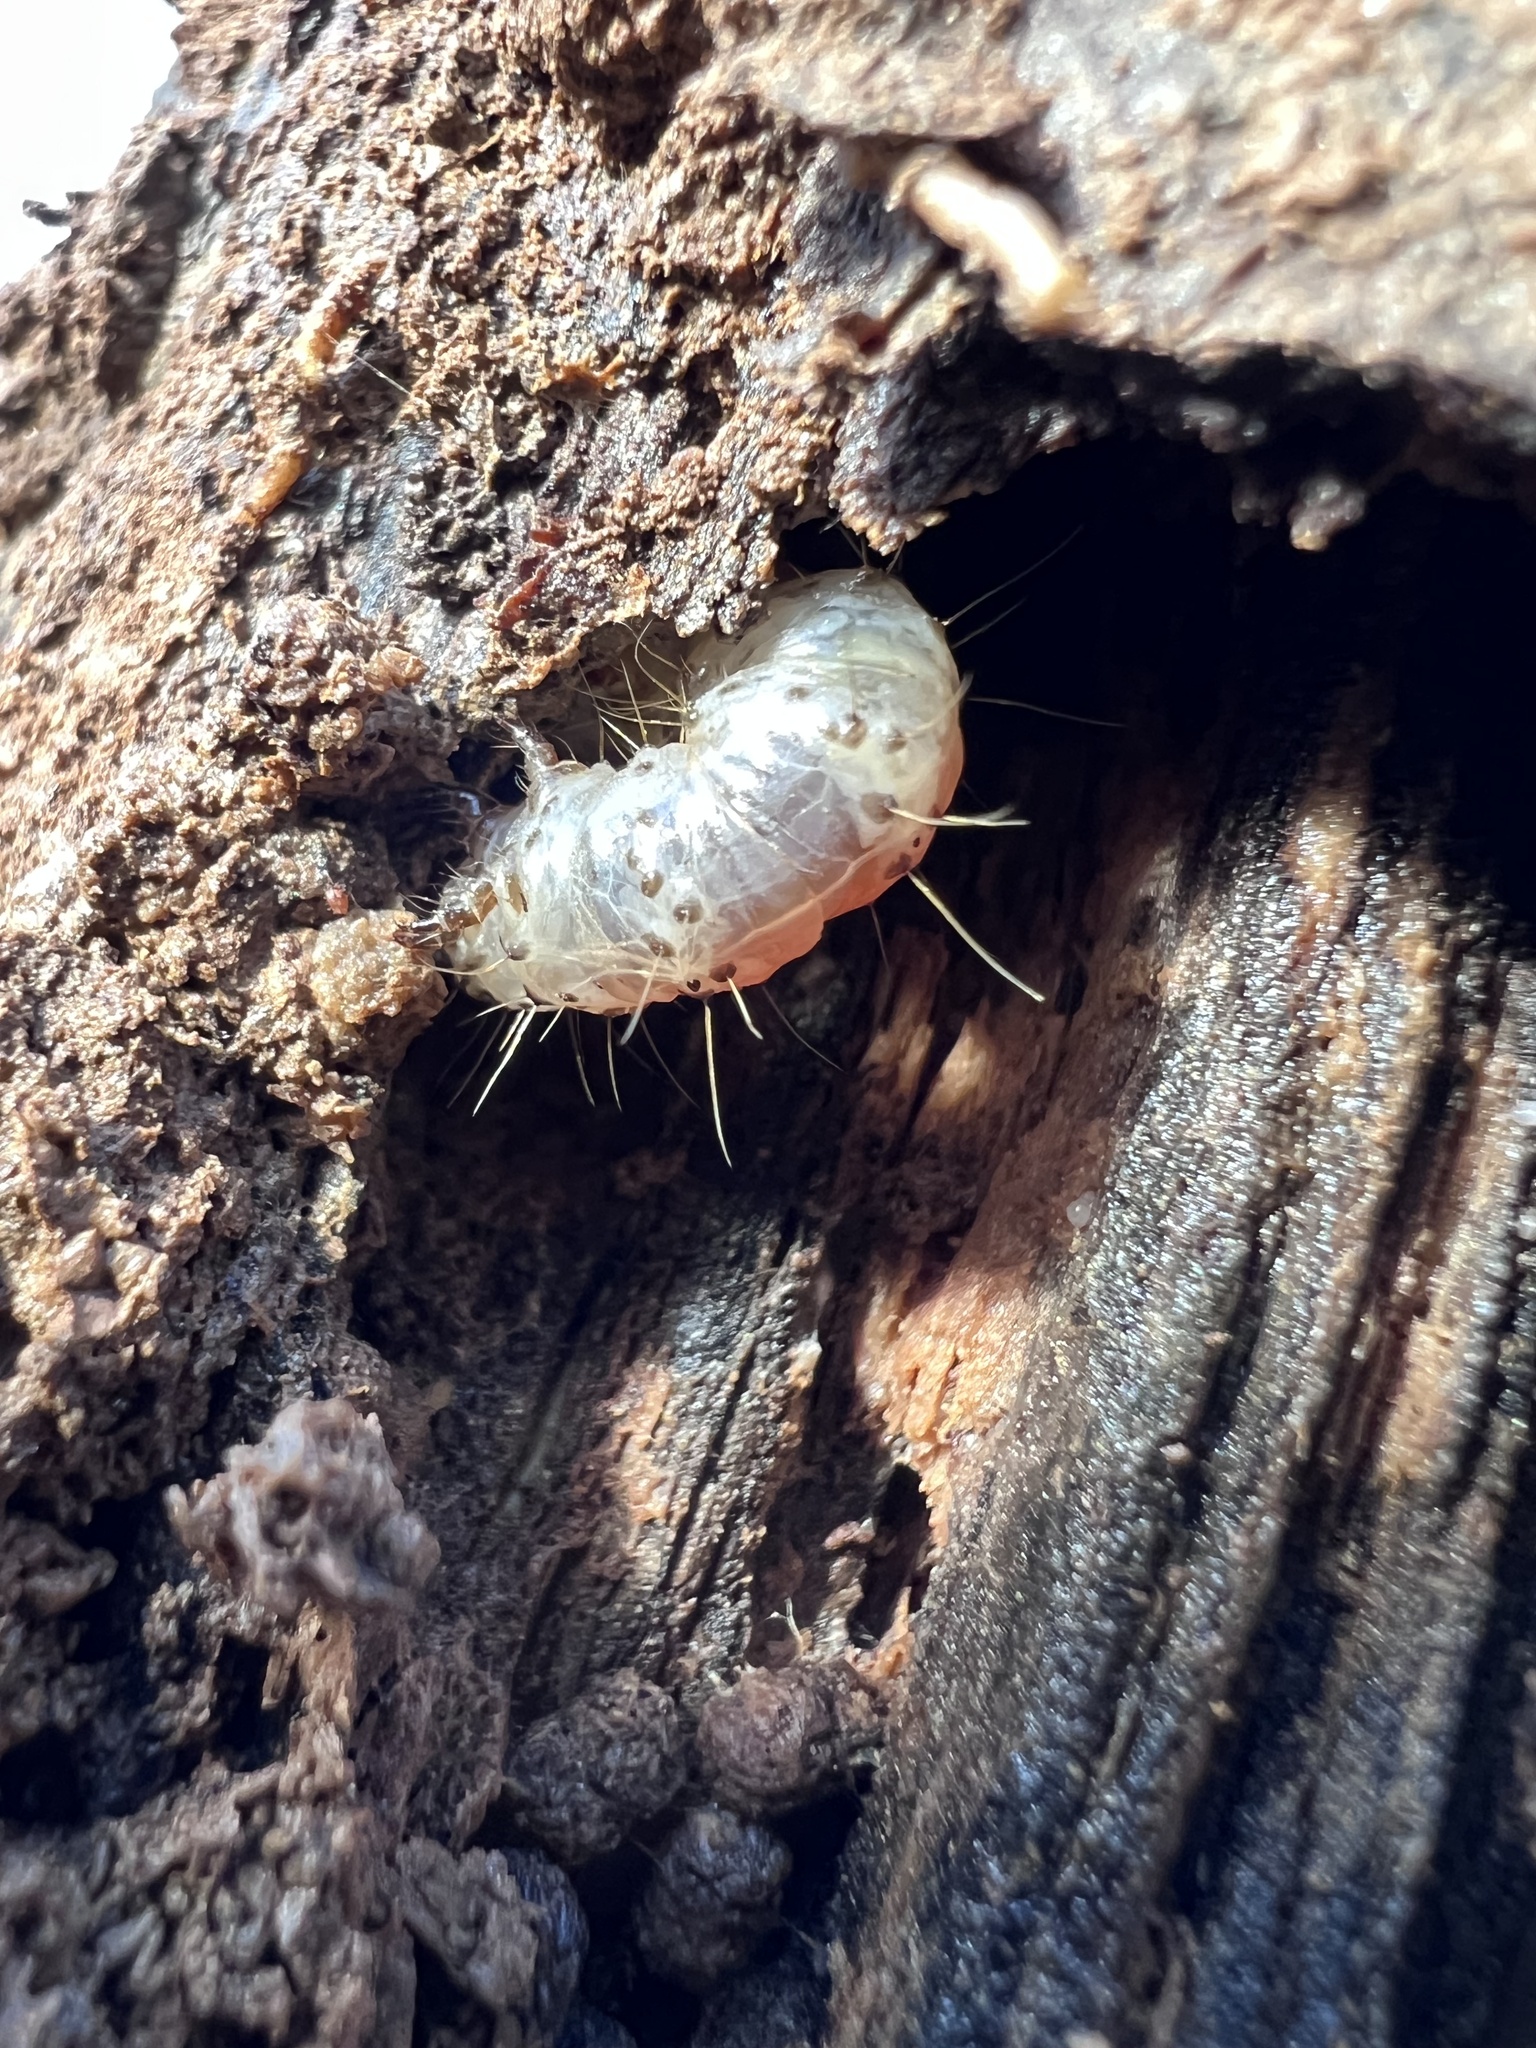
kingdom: Animalia
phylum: Arthropoda
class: Insecta
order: Lepidoptera
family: Erebidae
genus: Scolecocampa
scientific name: Scolecocampa liburna
